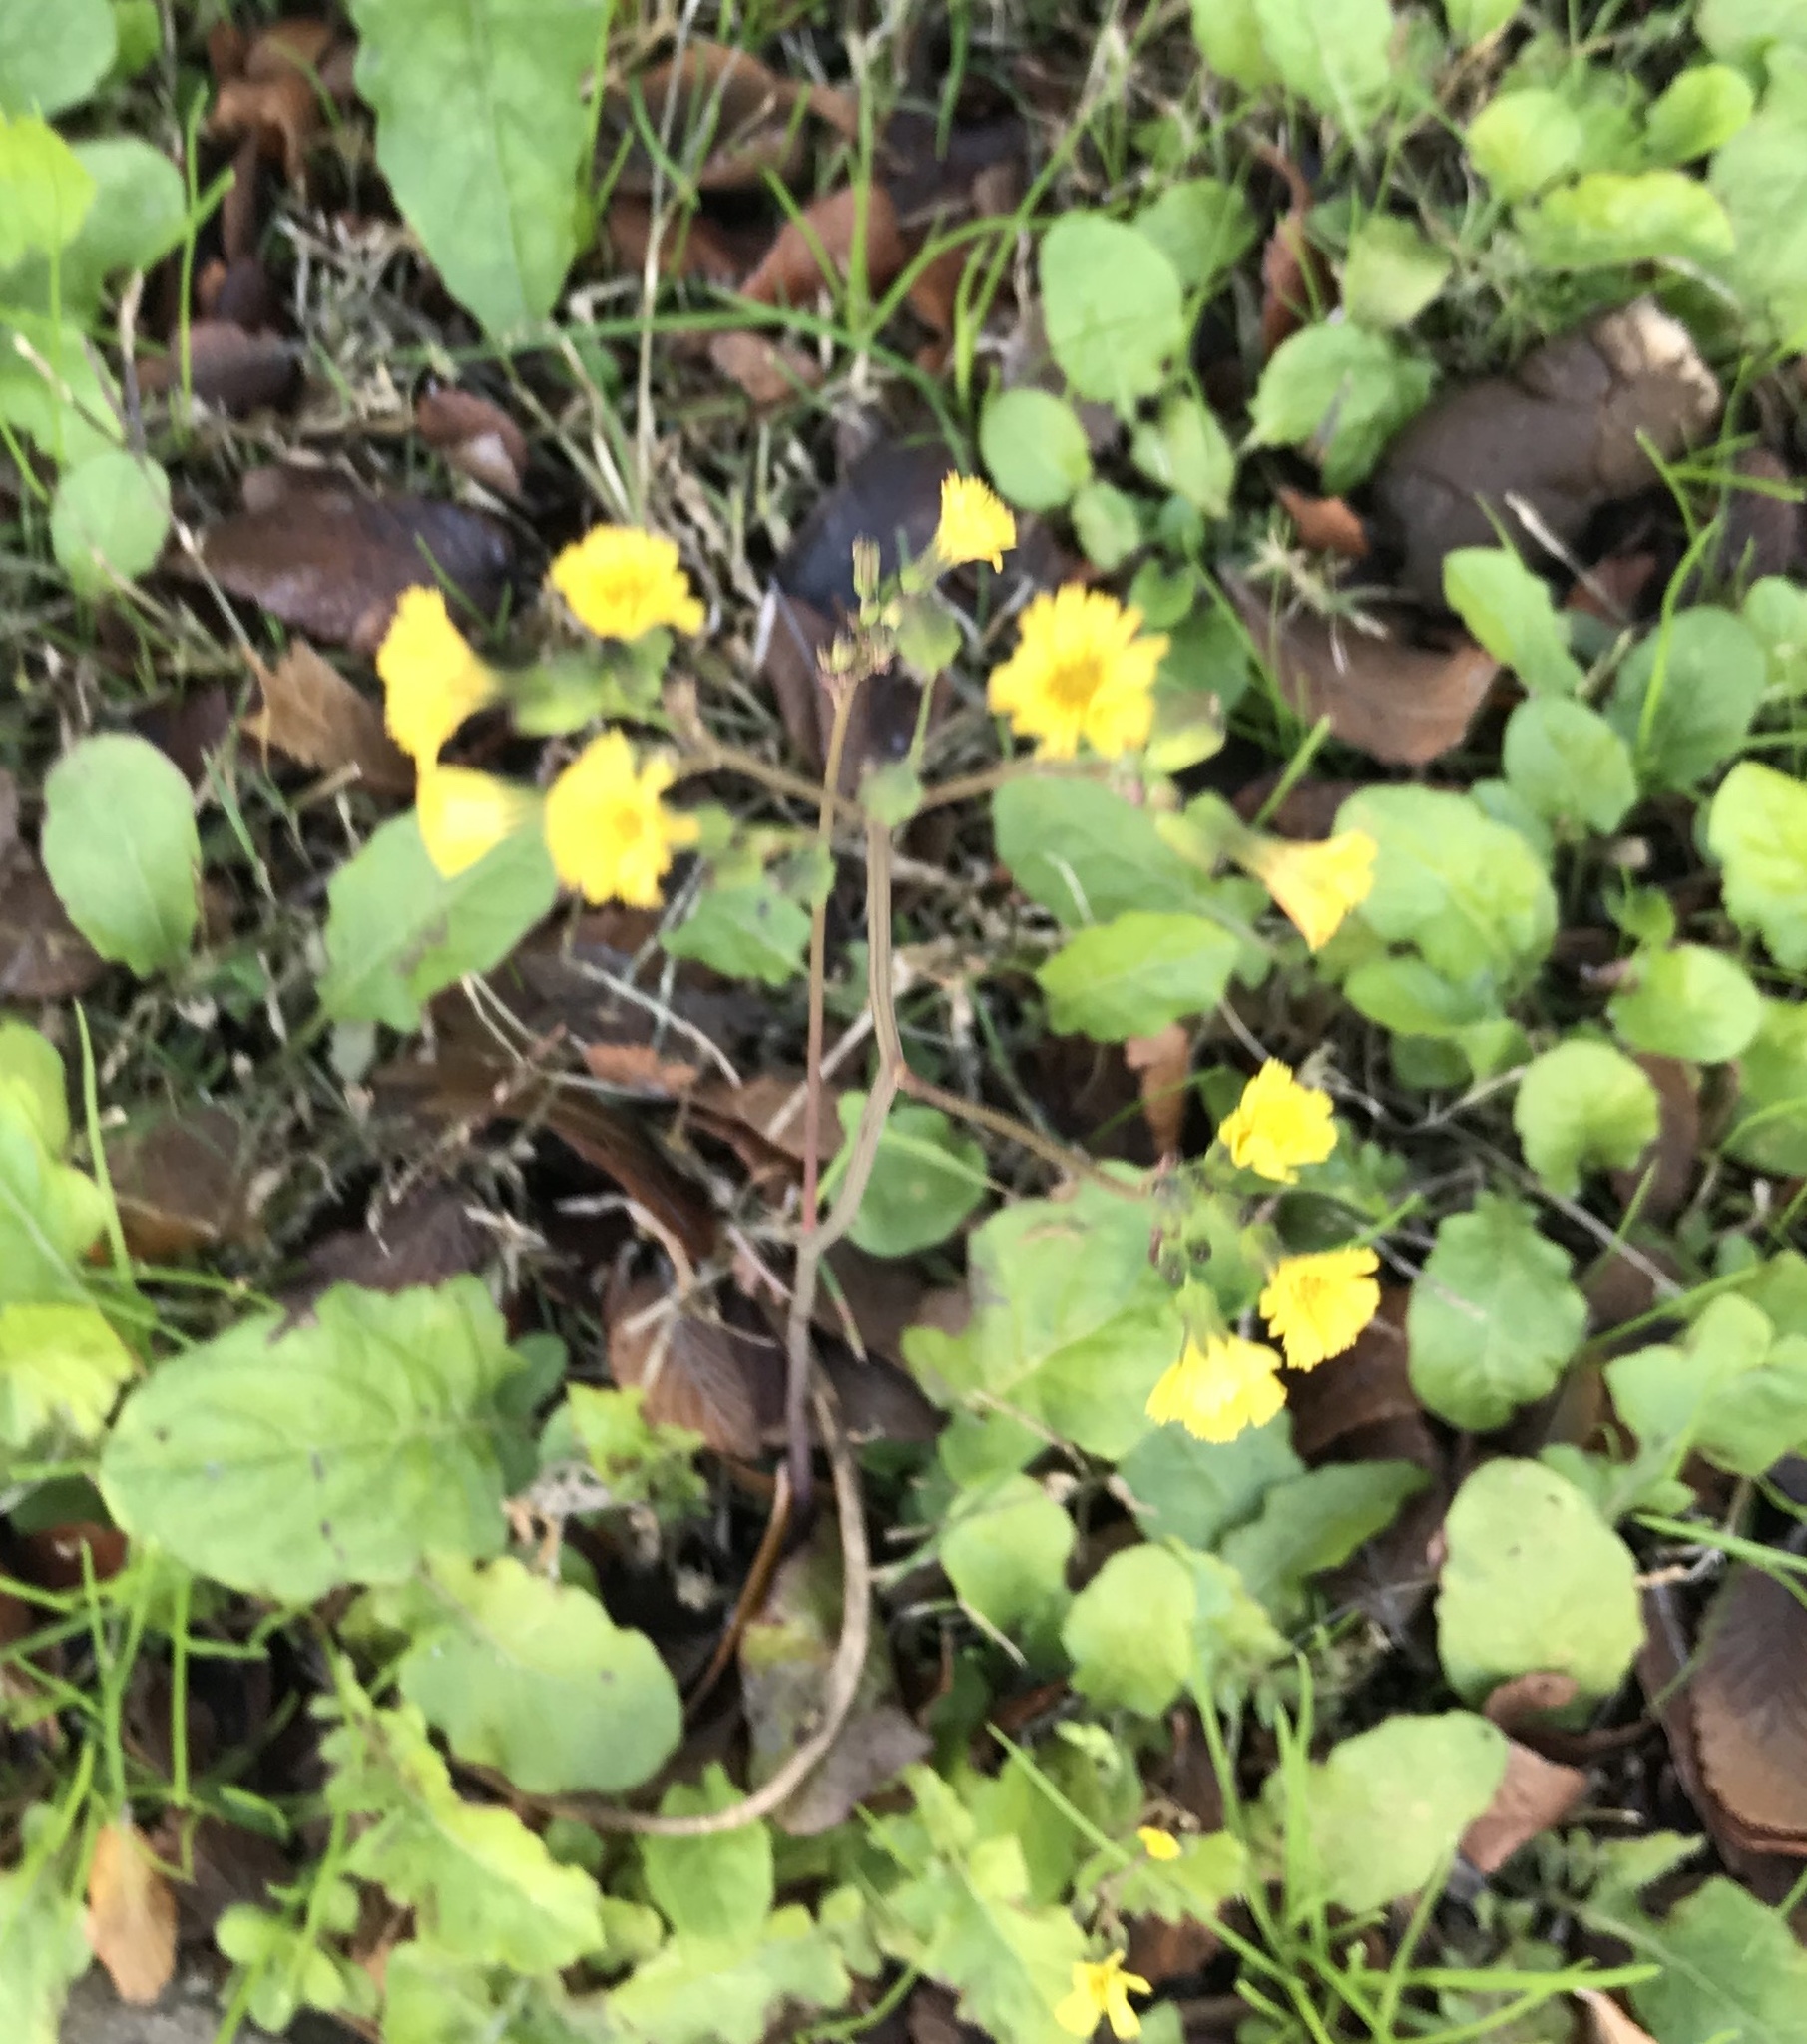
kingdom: Plantae
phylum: Tracheophyta
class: Magnoliopsida
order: Asterales
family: Asteraceae
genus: Youngia
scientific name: Youngia japonica
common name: Oriental false hawksbeard
